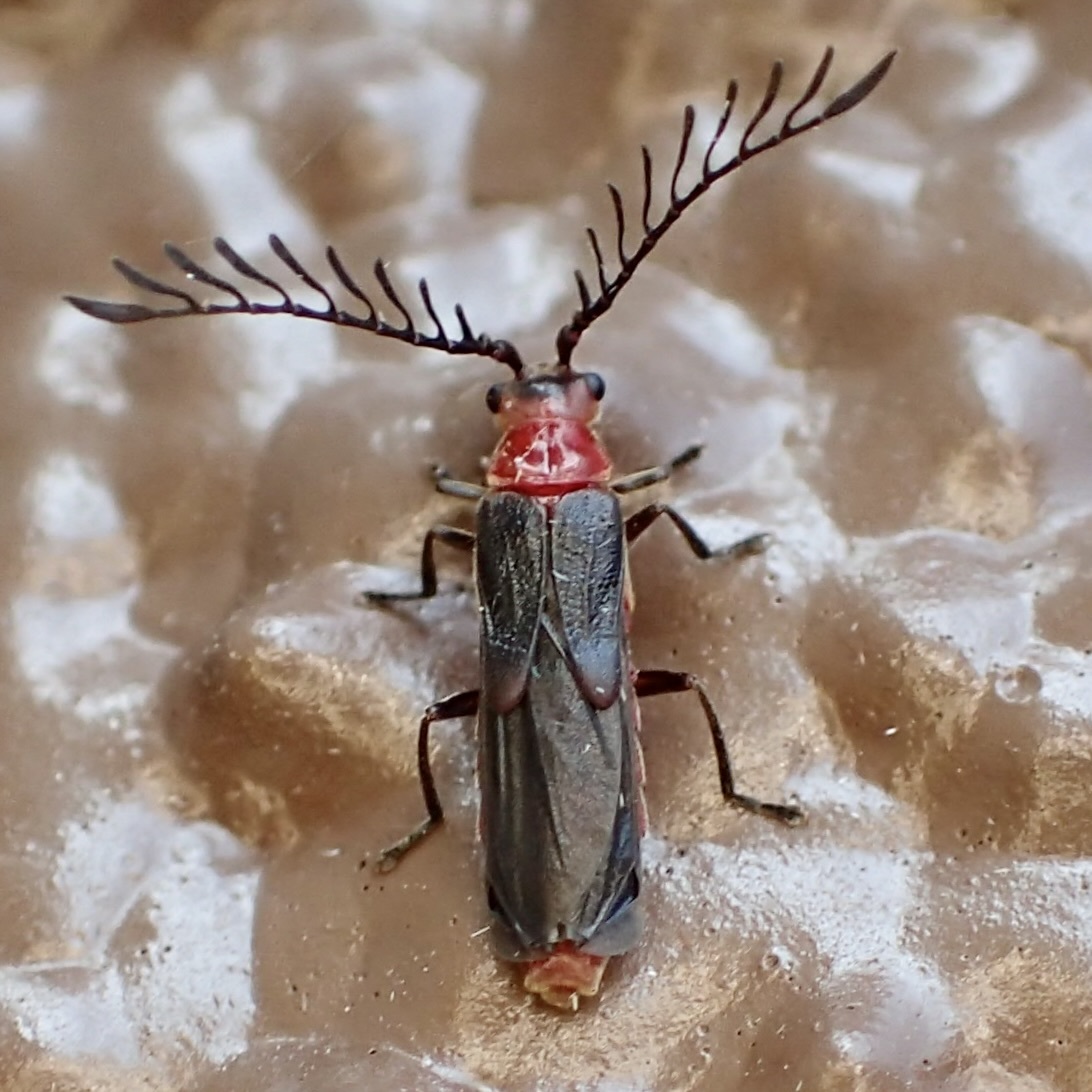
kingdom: Animalia
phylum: Arthropoda
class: Insecta
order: Coleoptera
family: Cantharidae
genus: Tytthonyx
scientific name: Tytthonyx bicolor
